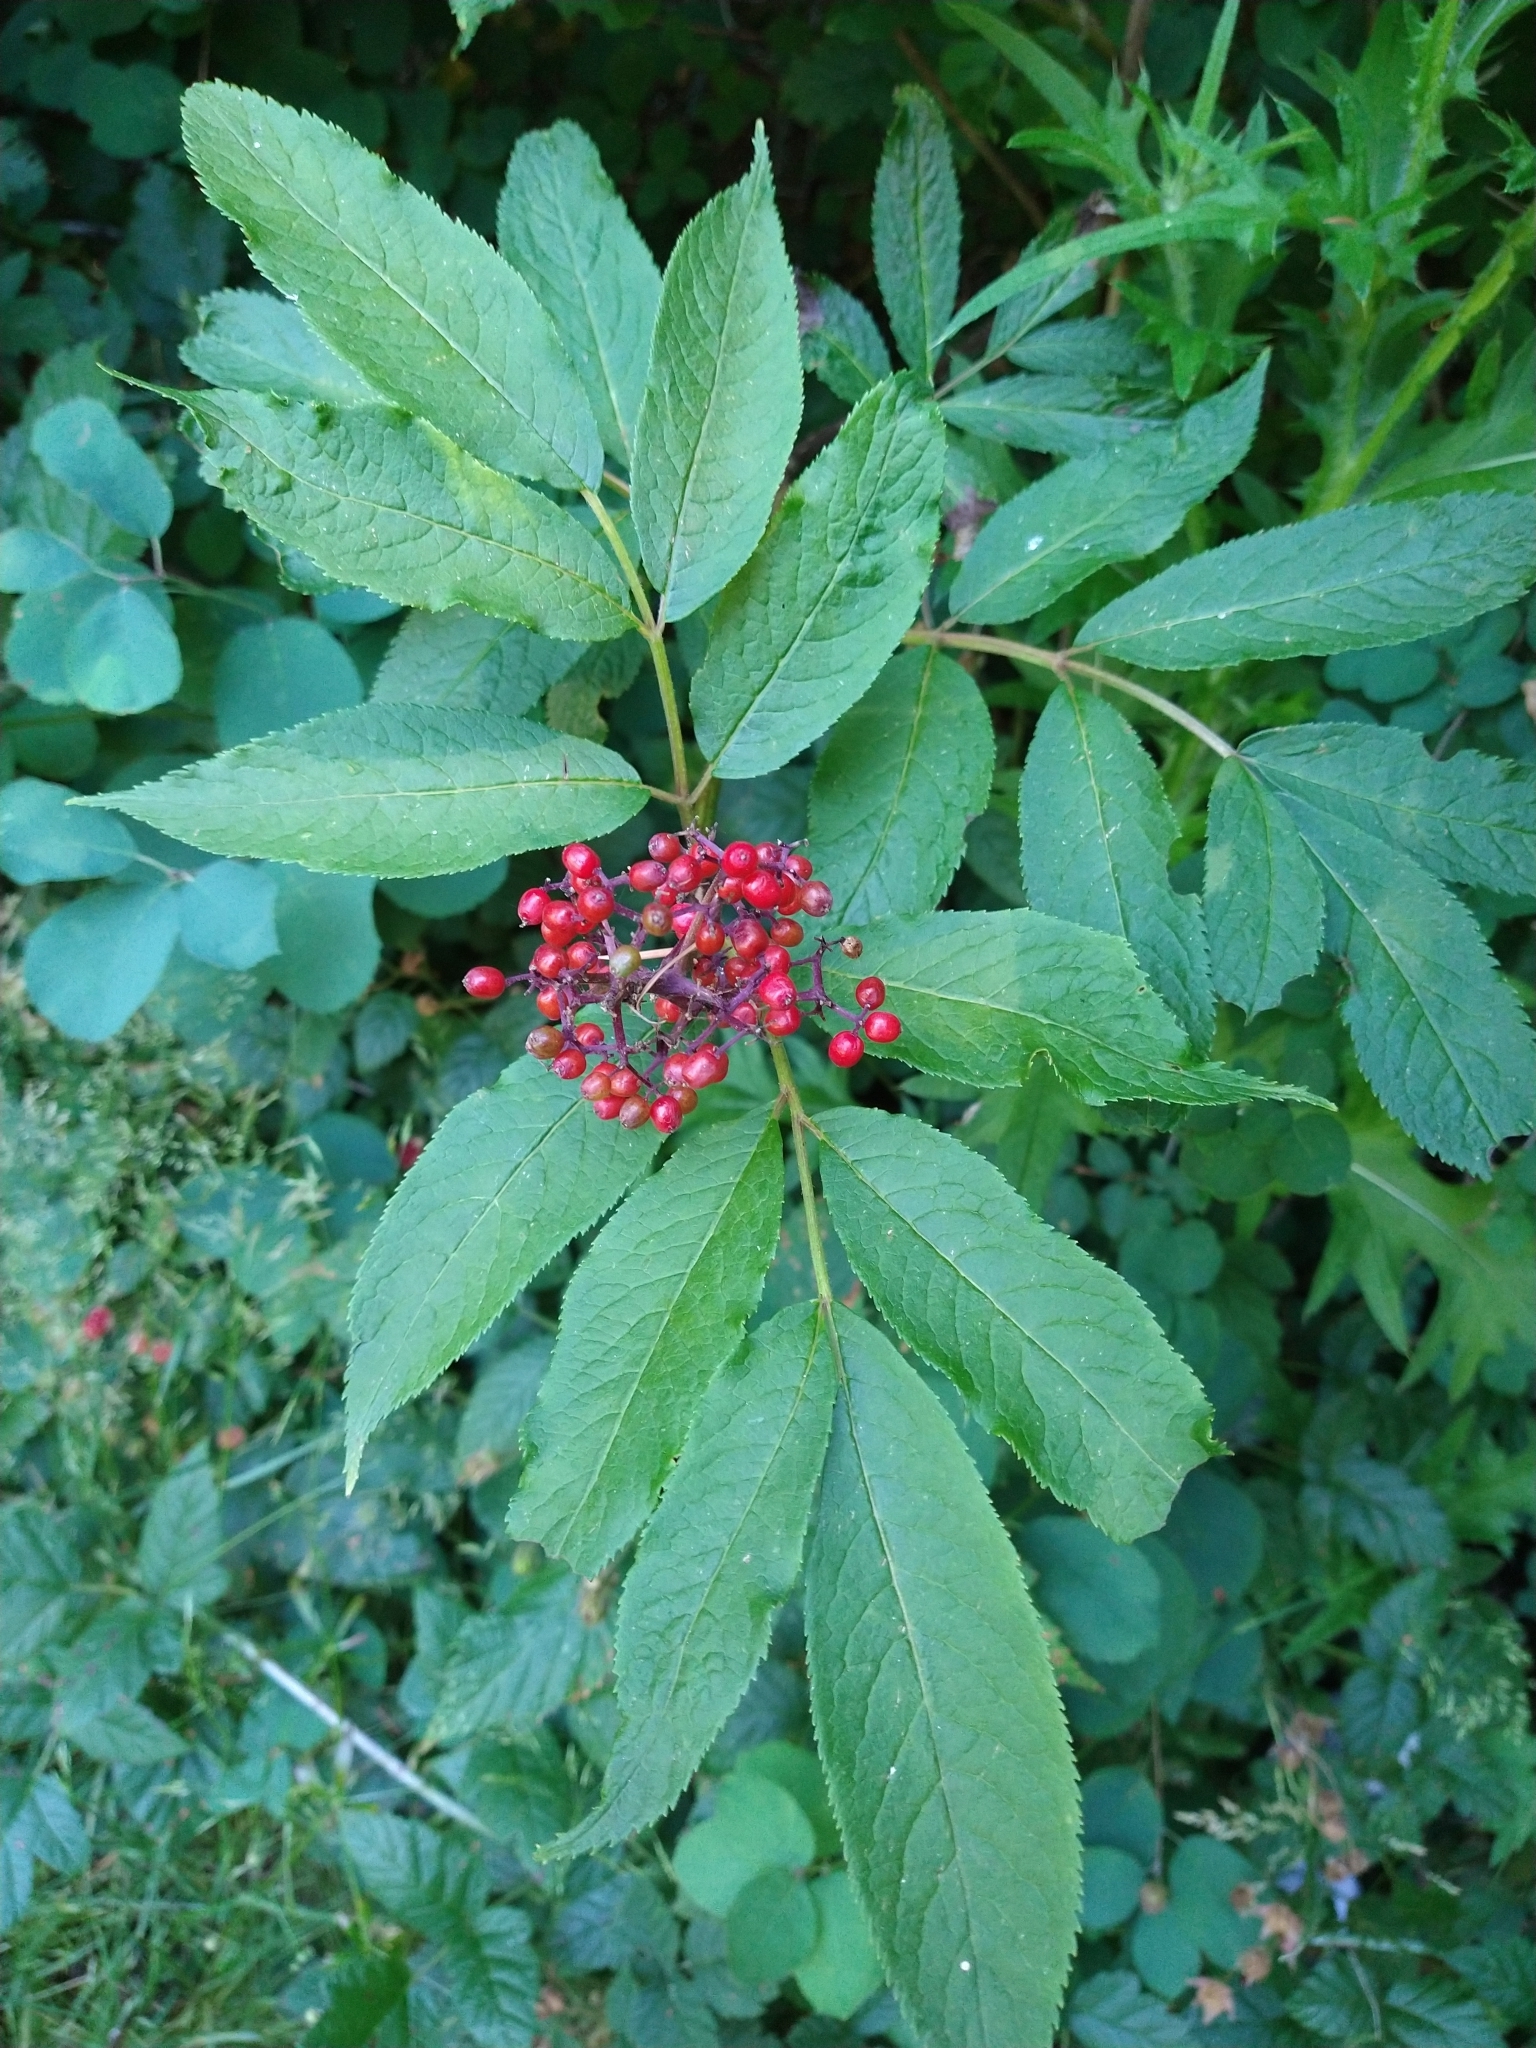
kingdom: Plantae
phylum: Tracheophyta
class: Magnoliopsida
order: Dipsacales
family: Viburnaceae
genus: Sambucus
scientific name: Sambucus racemosa
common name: Red-berried elder
